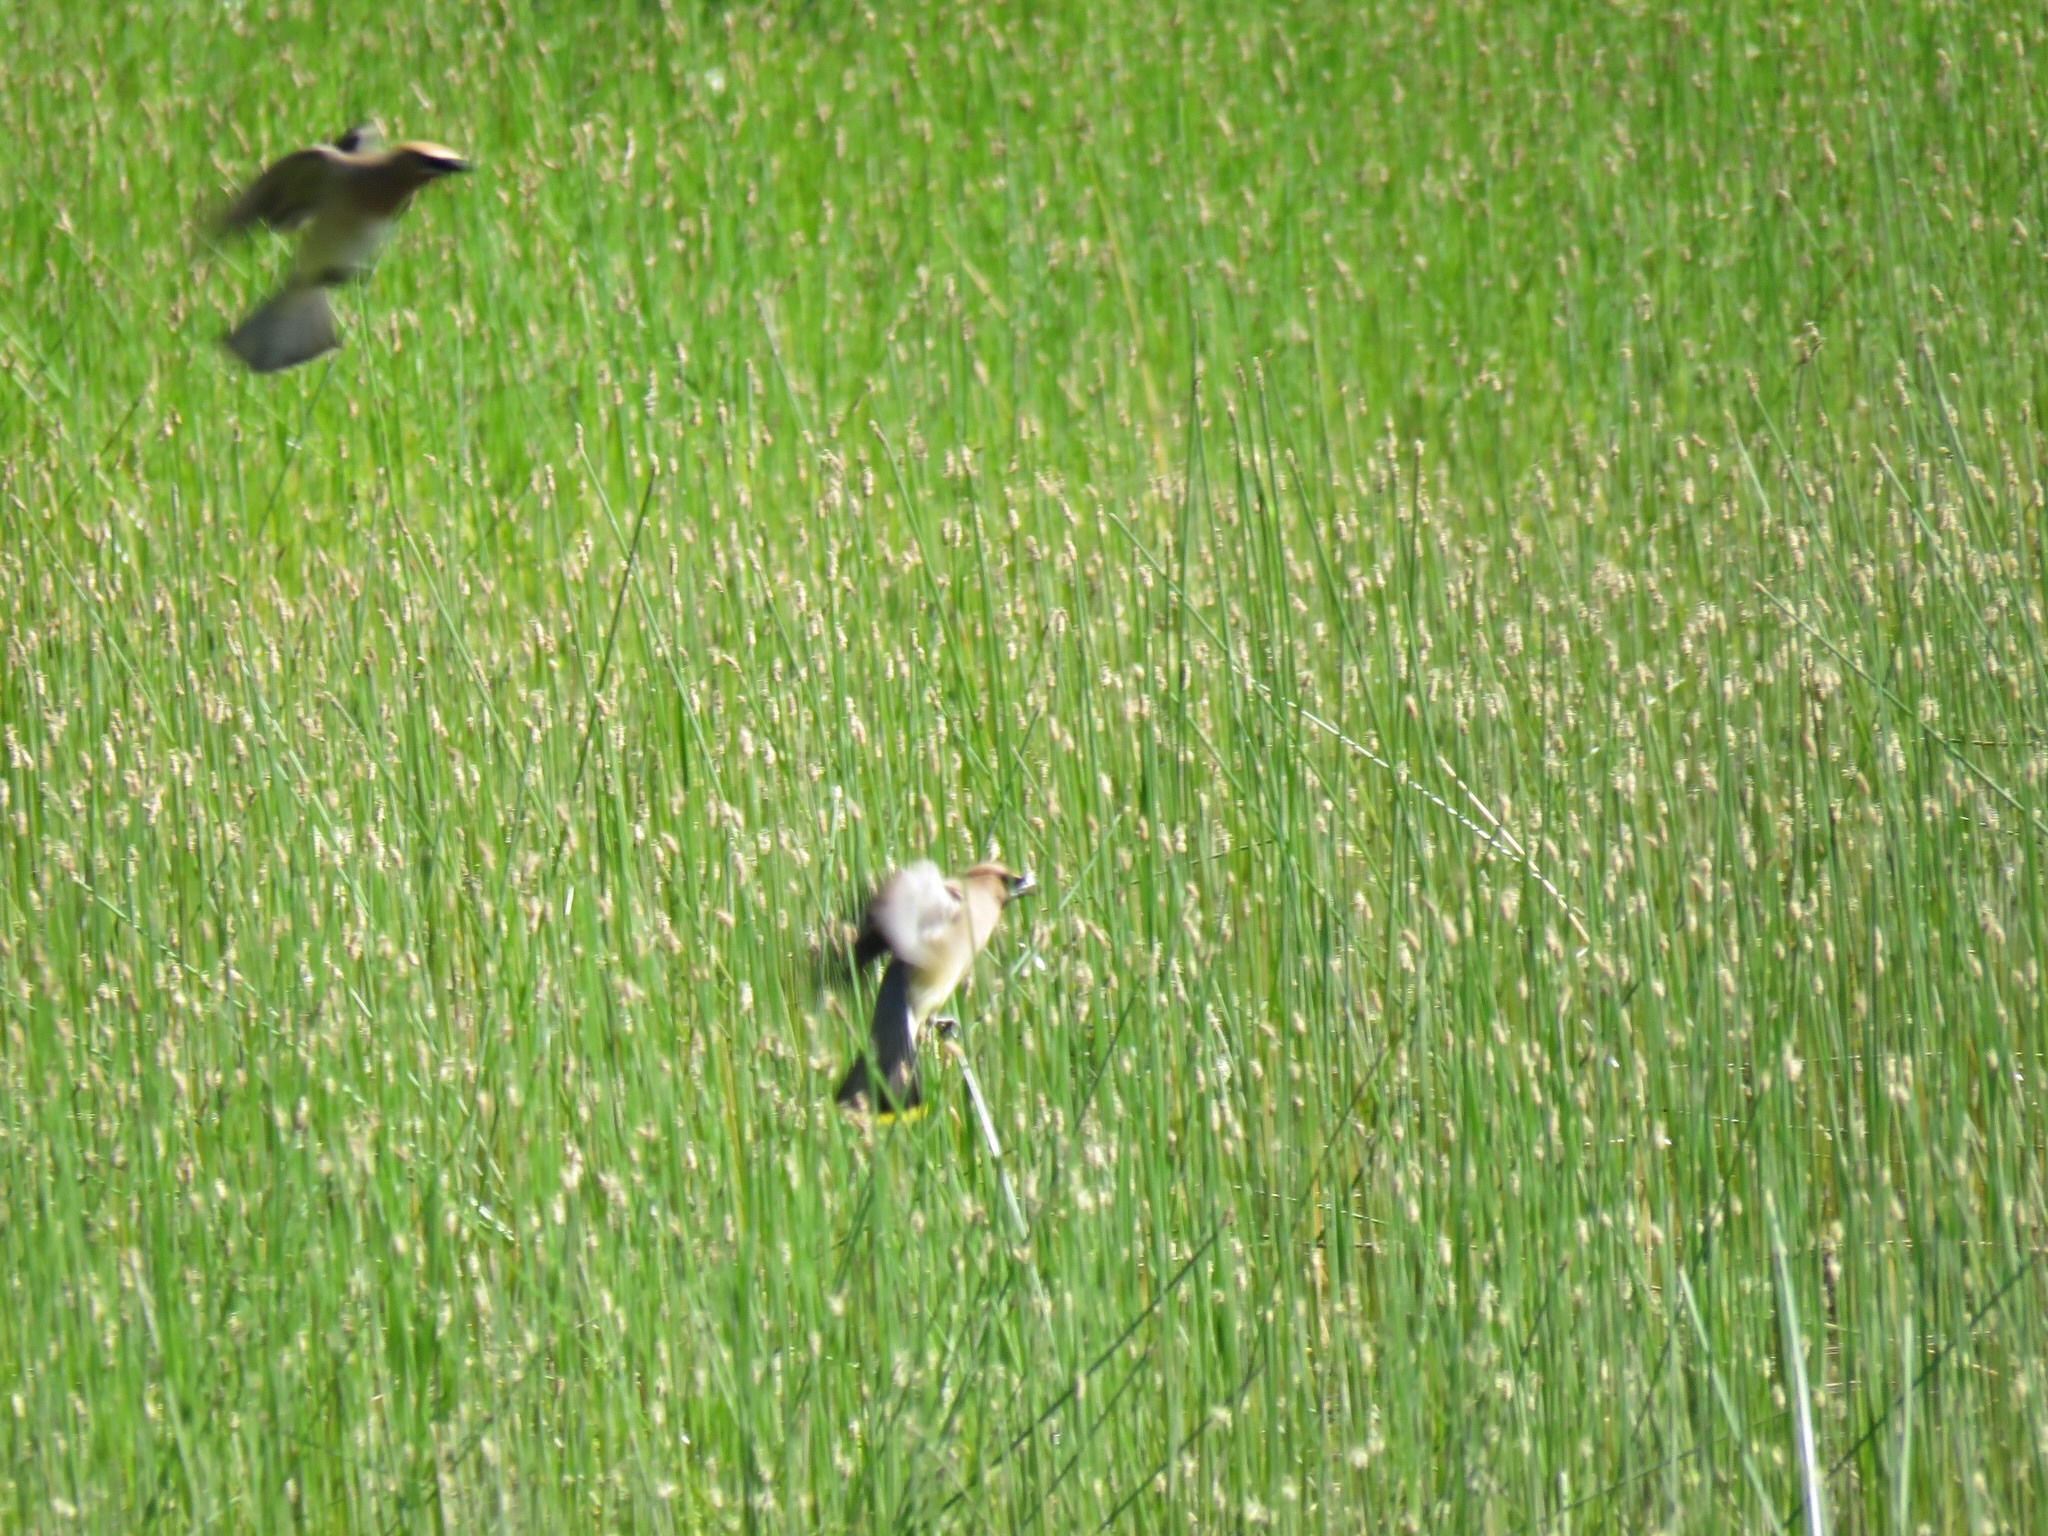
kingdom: Animalia
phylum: Chordata
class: Aves
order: Passeriformes
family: Bombycillidae
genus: Bombycilla
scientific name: Bombycilla cedrorum
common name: Cedar waxwing
